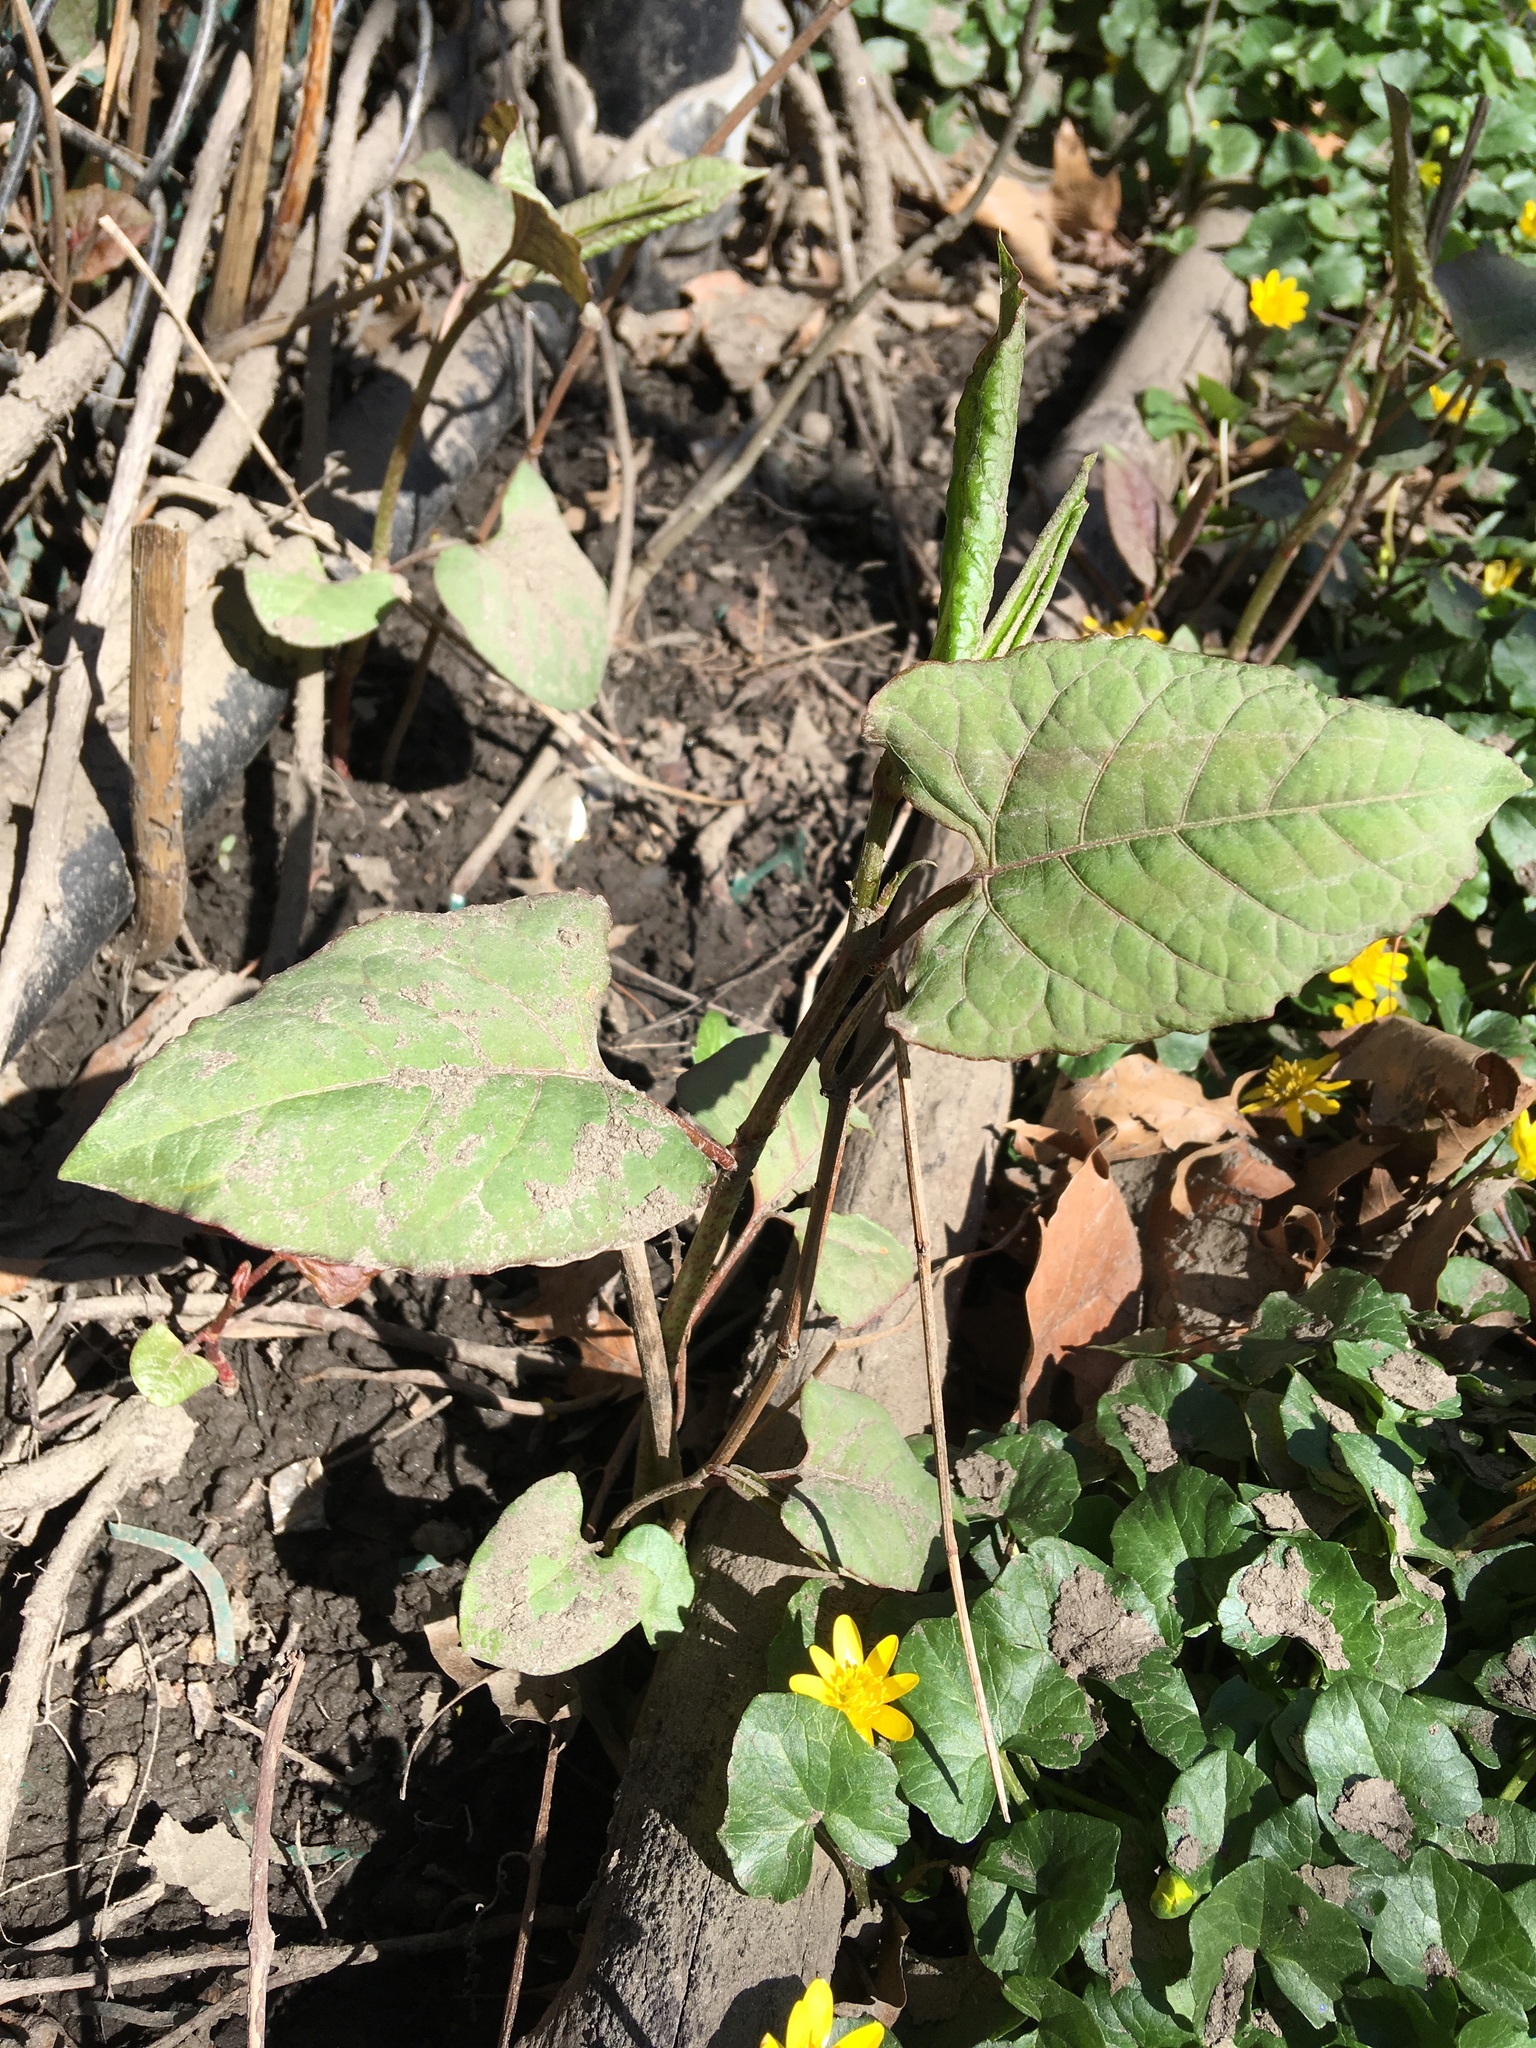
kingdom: Plantae
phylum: Tracheophyta
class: Magnoliopsida
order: Caryophyllales
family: Polygonaceae
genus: Reynoutria
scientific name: Reynoutria japonica
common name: Japanese knotweed
